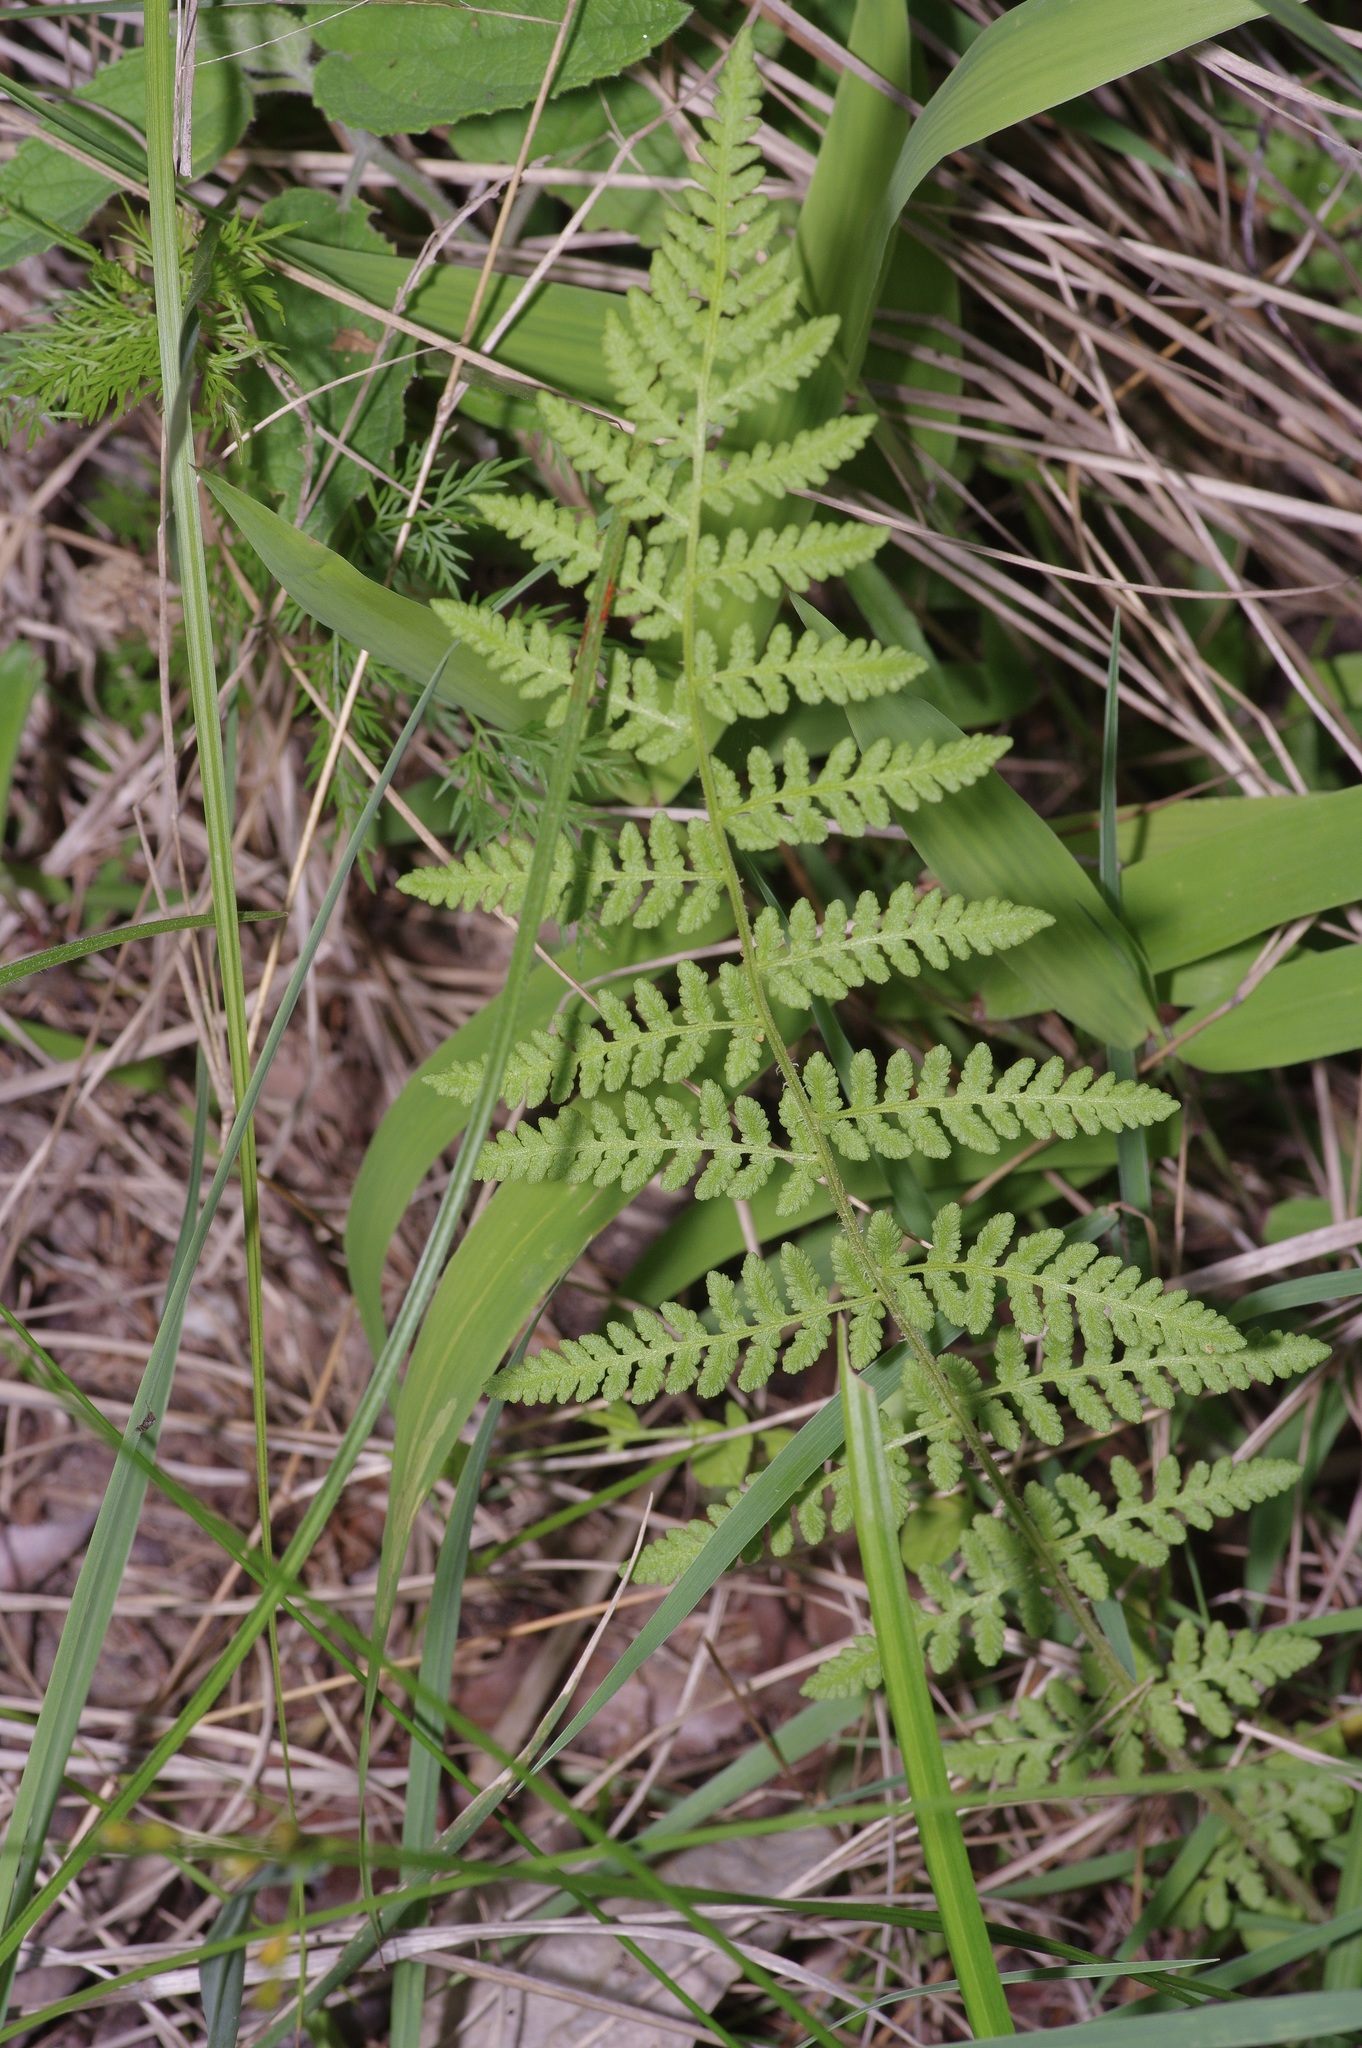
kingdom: Plantae
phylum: Tracheophyta
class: Polypodiopsida
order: Polypodiales
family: Woodsiaceae
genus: Physematium
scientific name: Physematium obtusum
